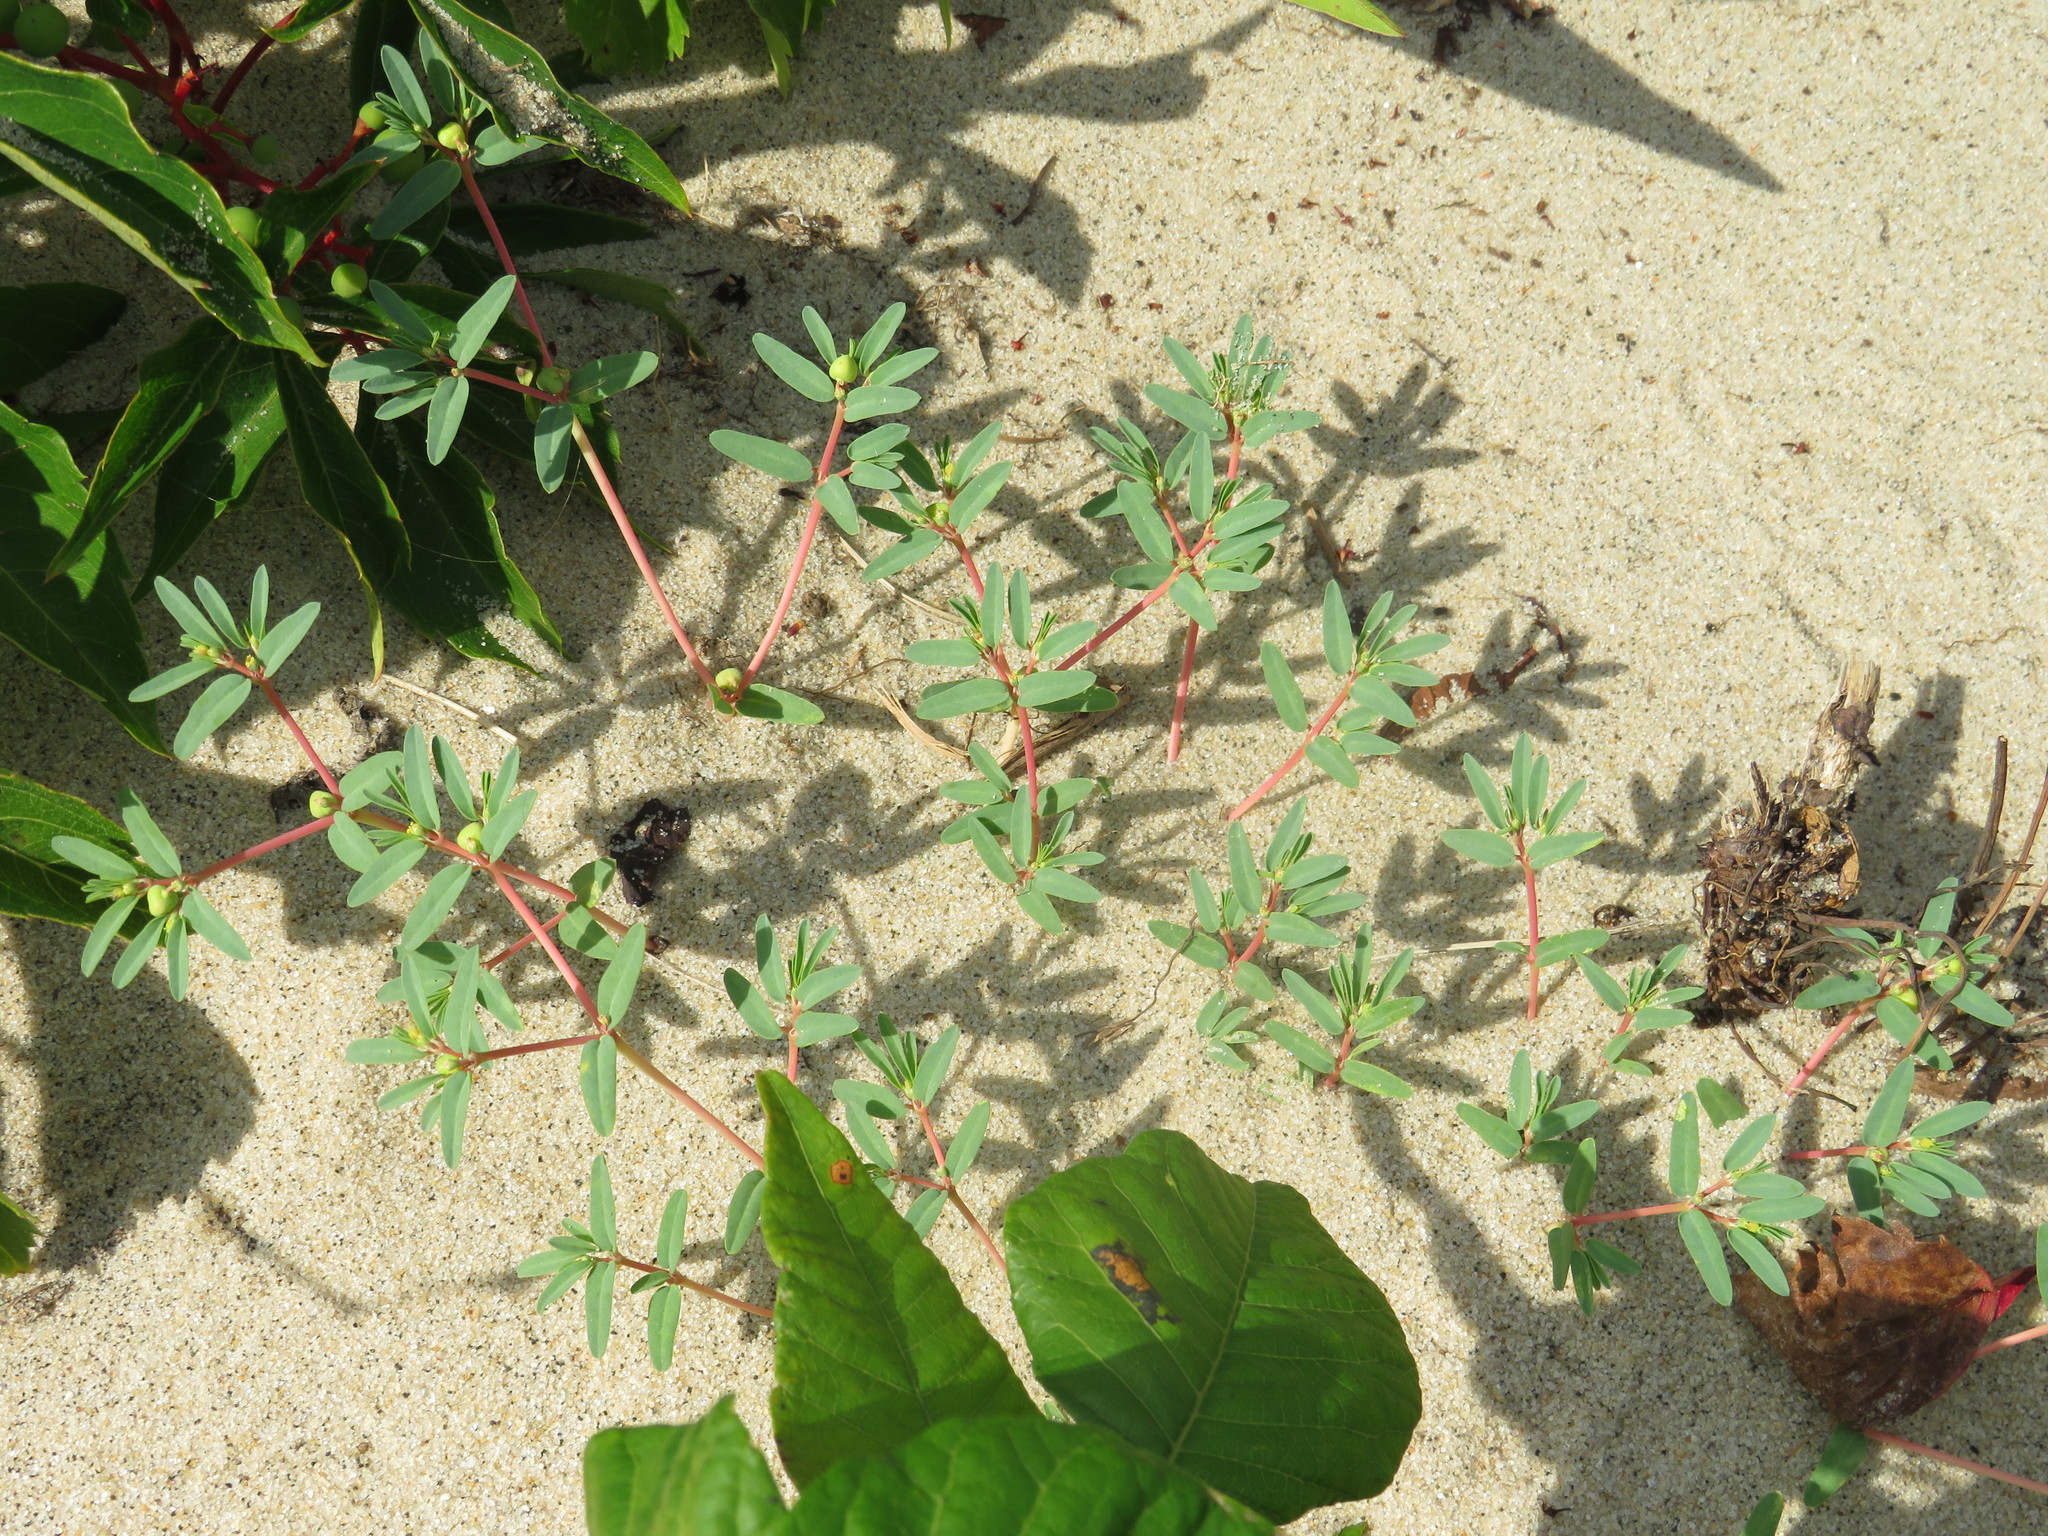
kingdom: Plantae
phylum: Tracheophyta
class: Magnoliopsida
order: Malpighiales
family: Euphorbiaceae
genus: Euphorbia
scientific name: Euphorbia polygonifolia
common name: Knotweed spurge
